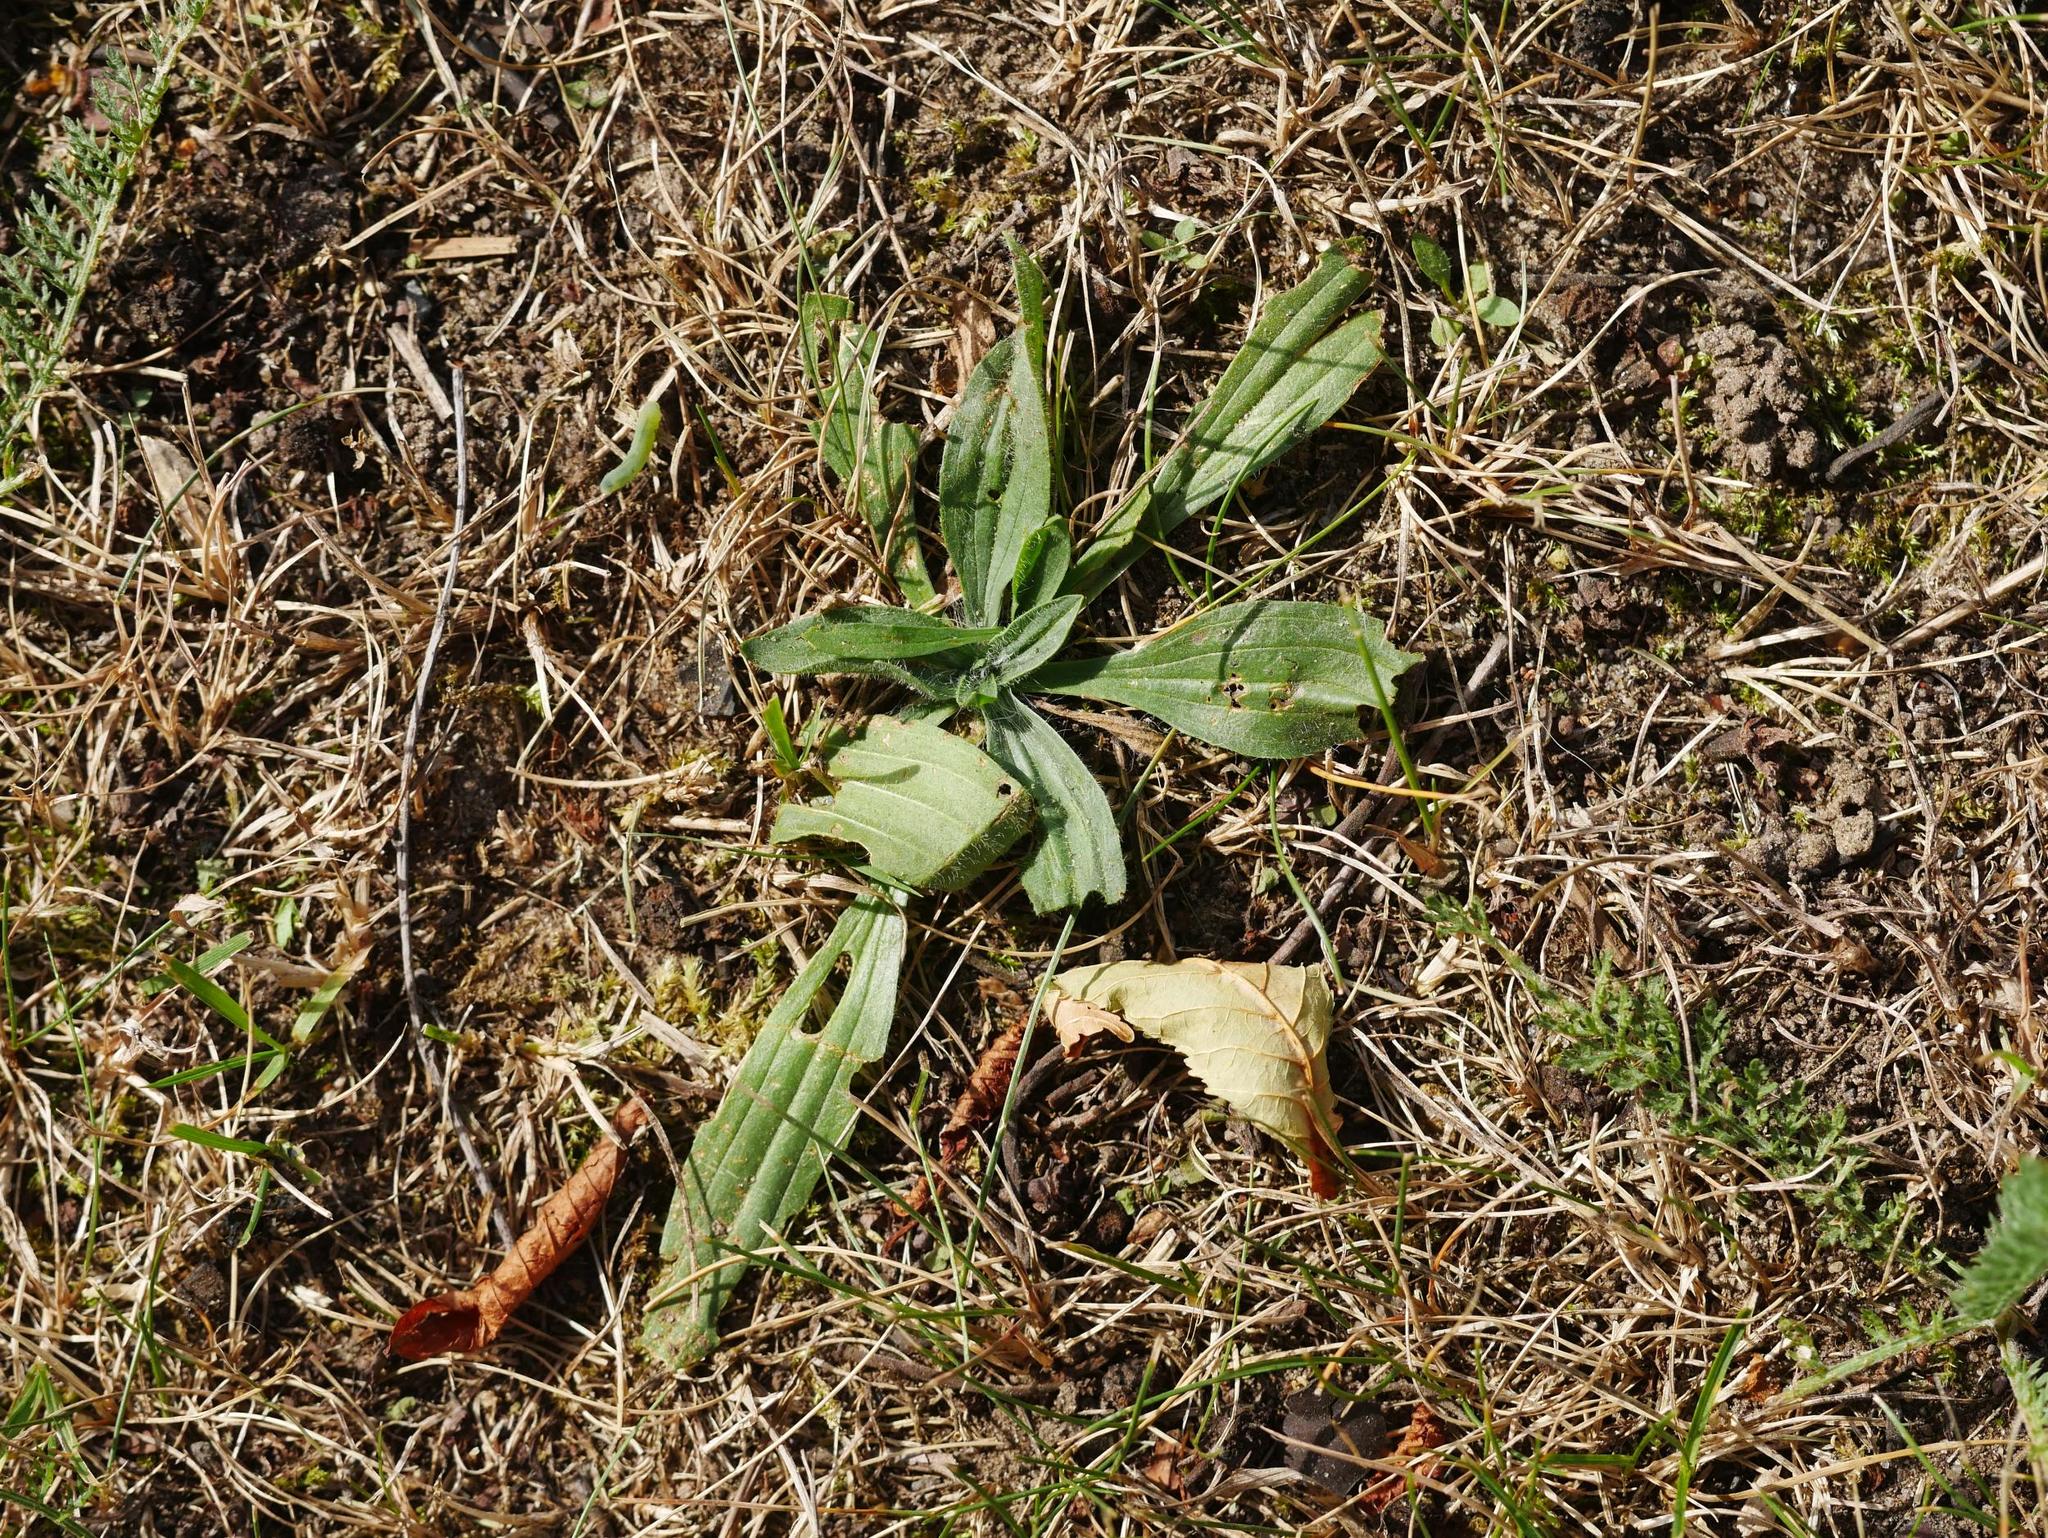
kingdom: Plantae
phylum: Tracheophyta
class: Magnoliopsida
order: Lamiales
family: Plantaginaceae
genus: Plantago
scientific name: Plantago lanceolata
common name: Ribwort plantain
